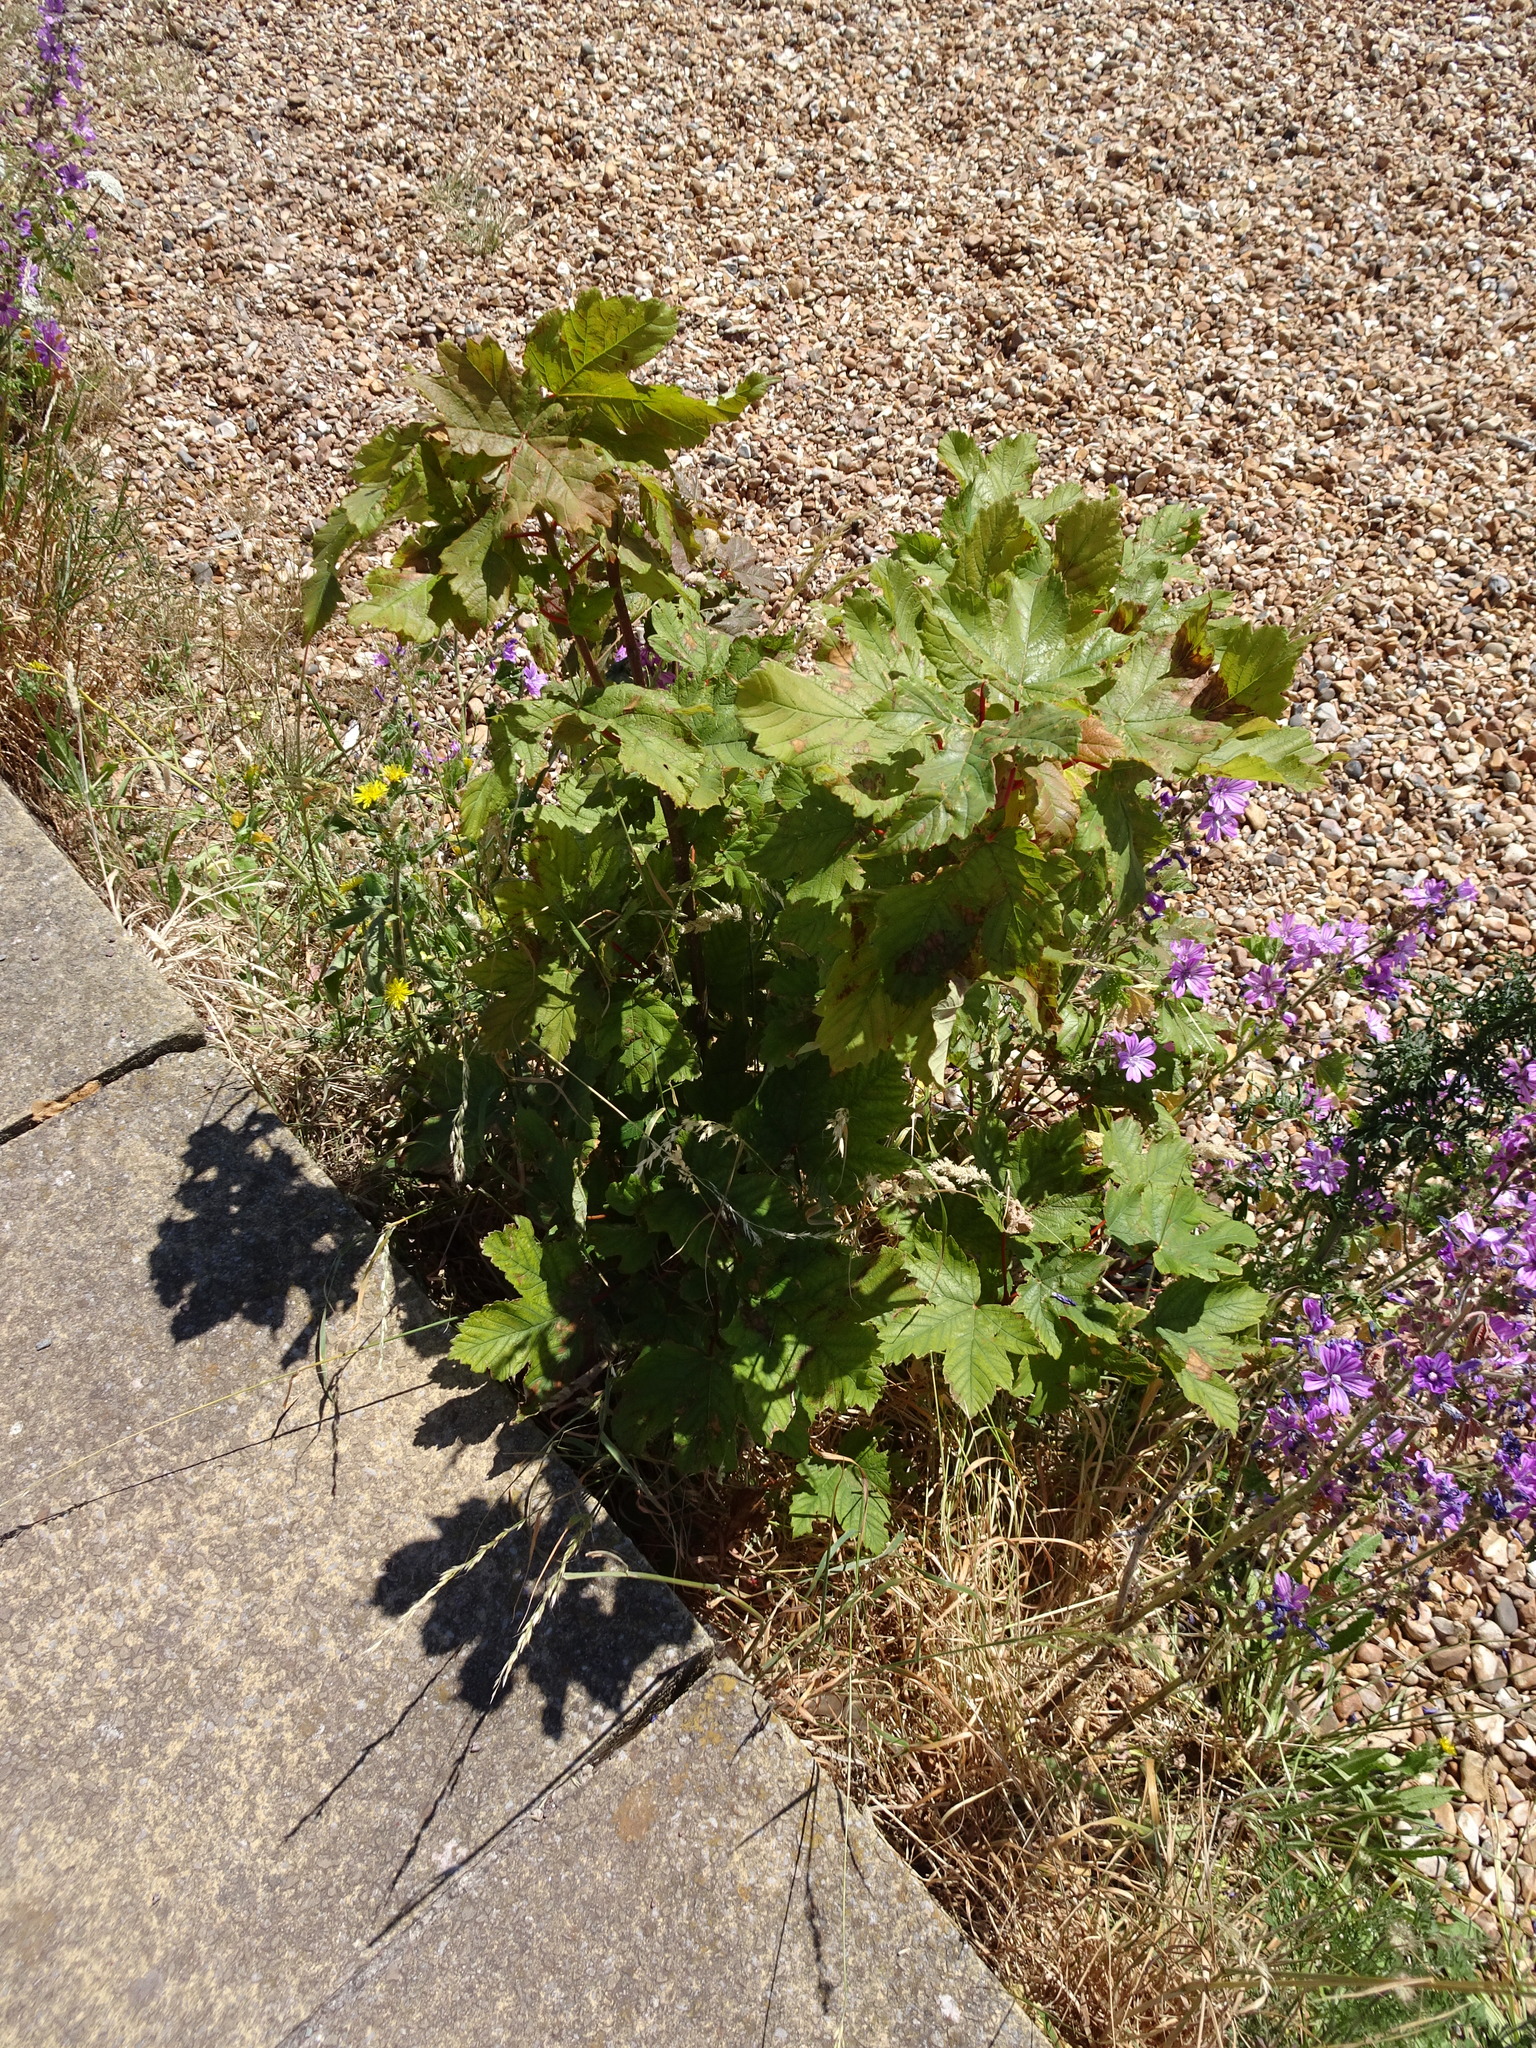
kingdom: Plantae
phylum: Tracheophyta
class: Magnoliopsida
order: Sapindales
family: Sapindaceae
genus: Acer
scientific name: Acer pseudoplatanus
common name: Sycamore
